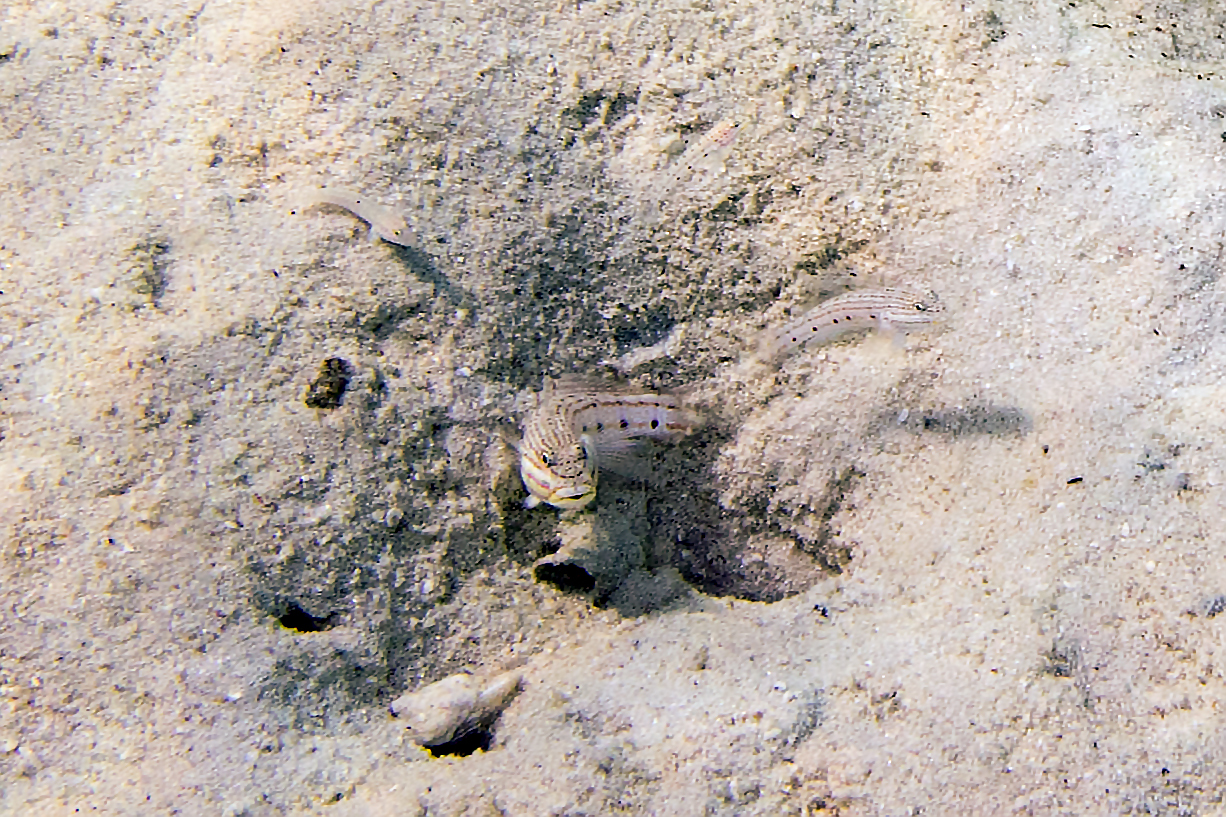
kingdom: Animalia
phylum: Chordata
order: Perciformes
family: Gobiidae
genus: Valenciennea
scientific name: Valenciennea longipinnis
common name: Longfinned goby
